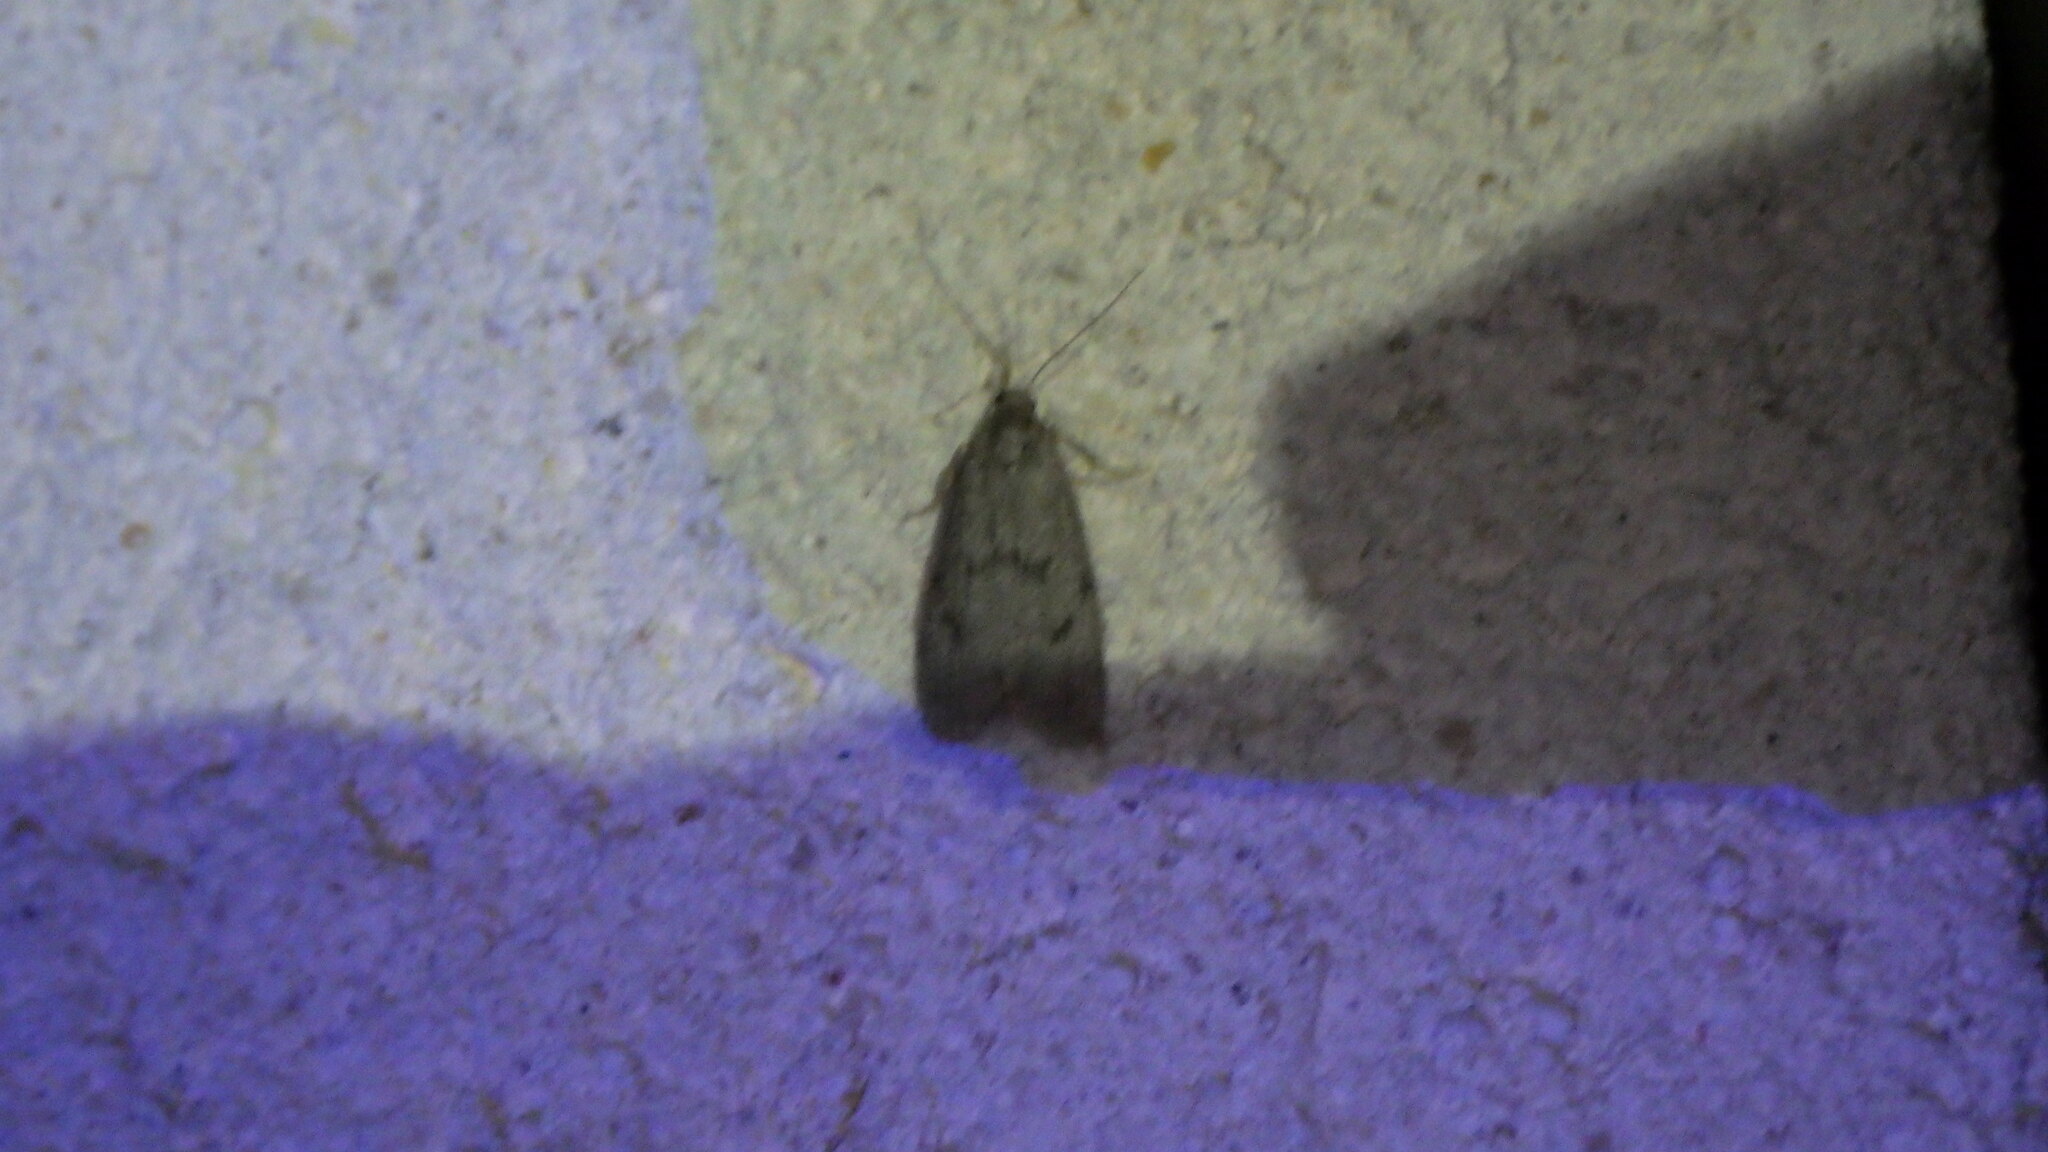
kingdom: Animalia
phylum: Arthropoda
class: Insecta
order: Lepidoptera
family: Erebidae
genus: Apaidia
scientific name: Apaidia mesogona
